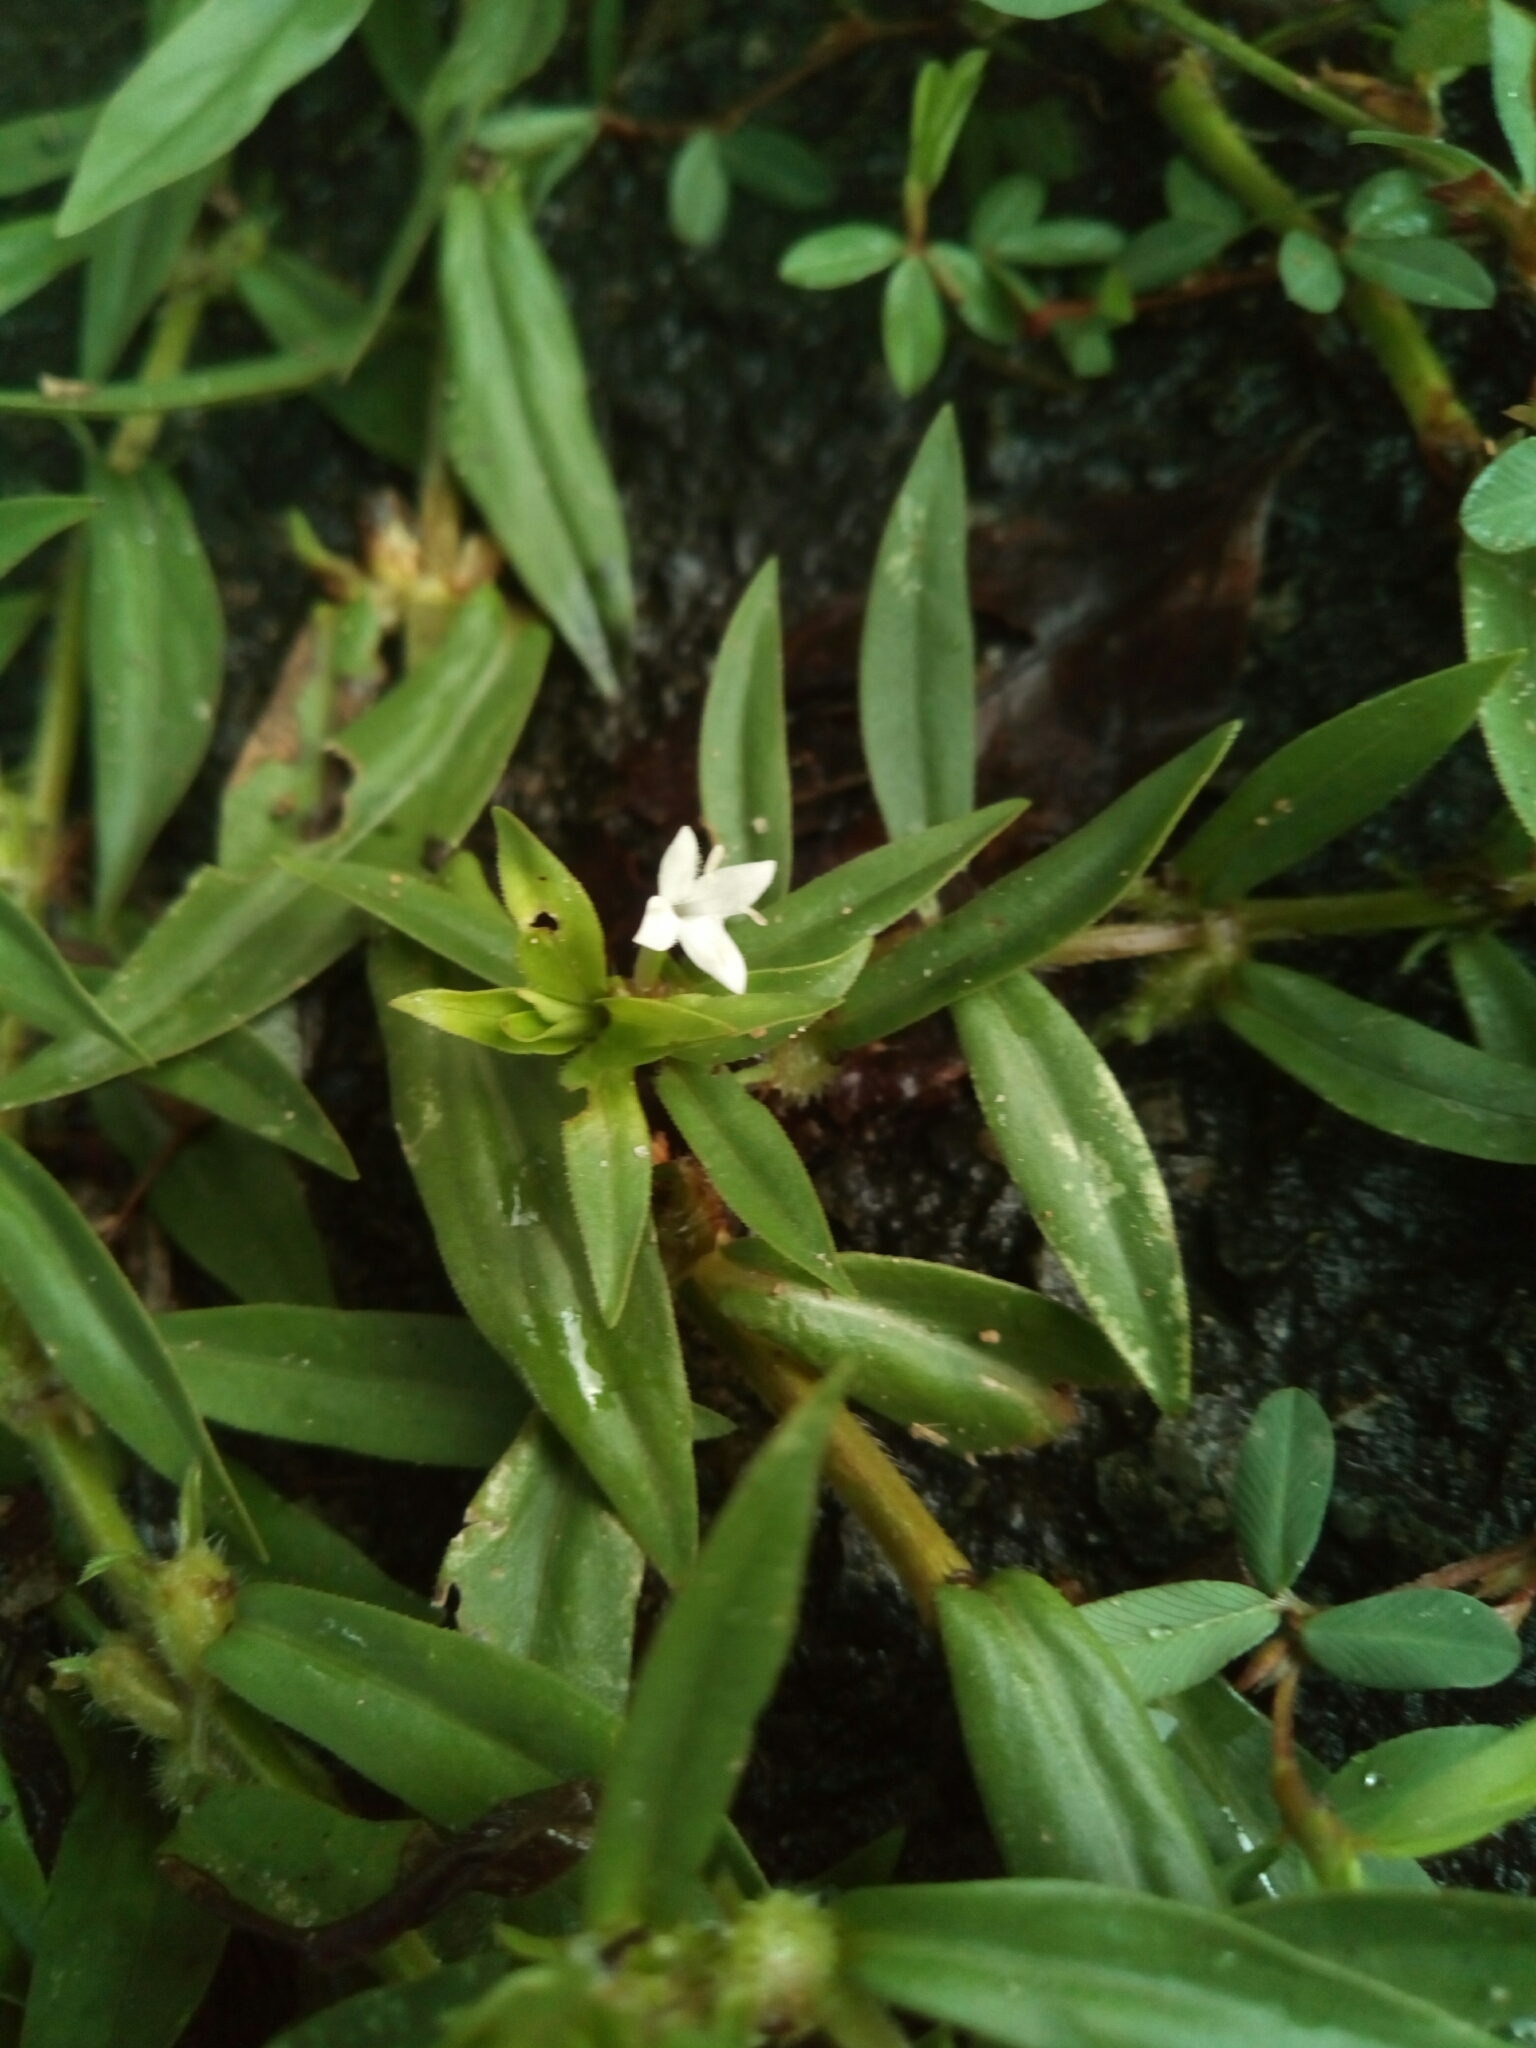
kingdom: Plantae
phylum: Tracheophyta
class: Magnoliopsida
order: Gentianales
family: Rubiaceae
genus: Diodia
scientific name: Diodia virginiana
